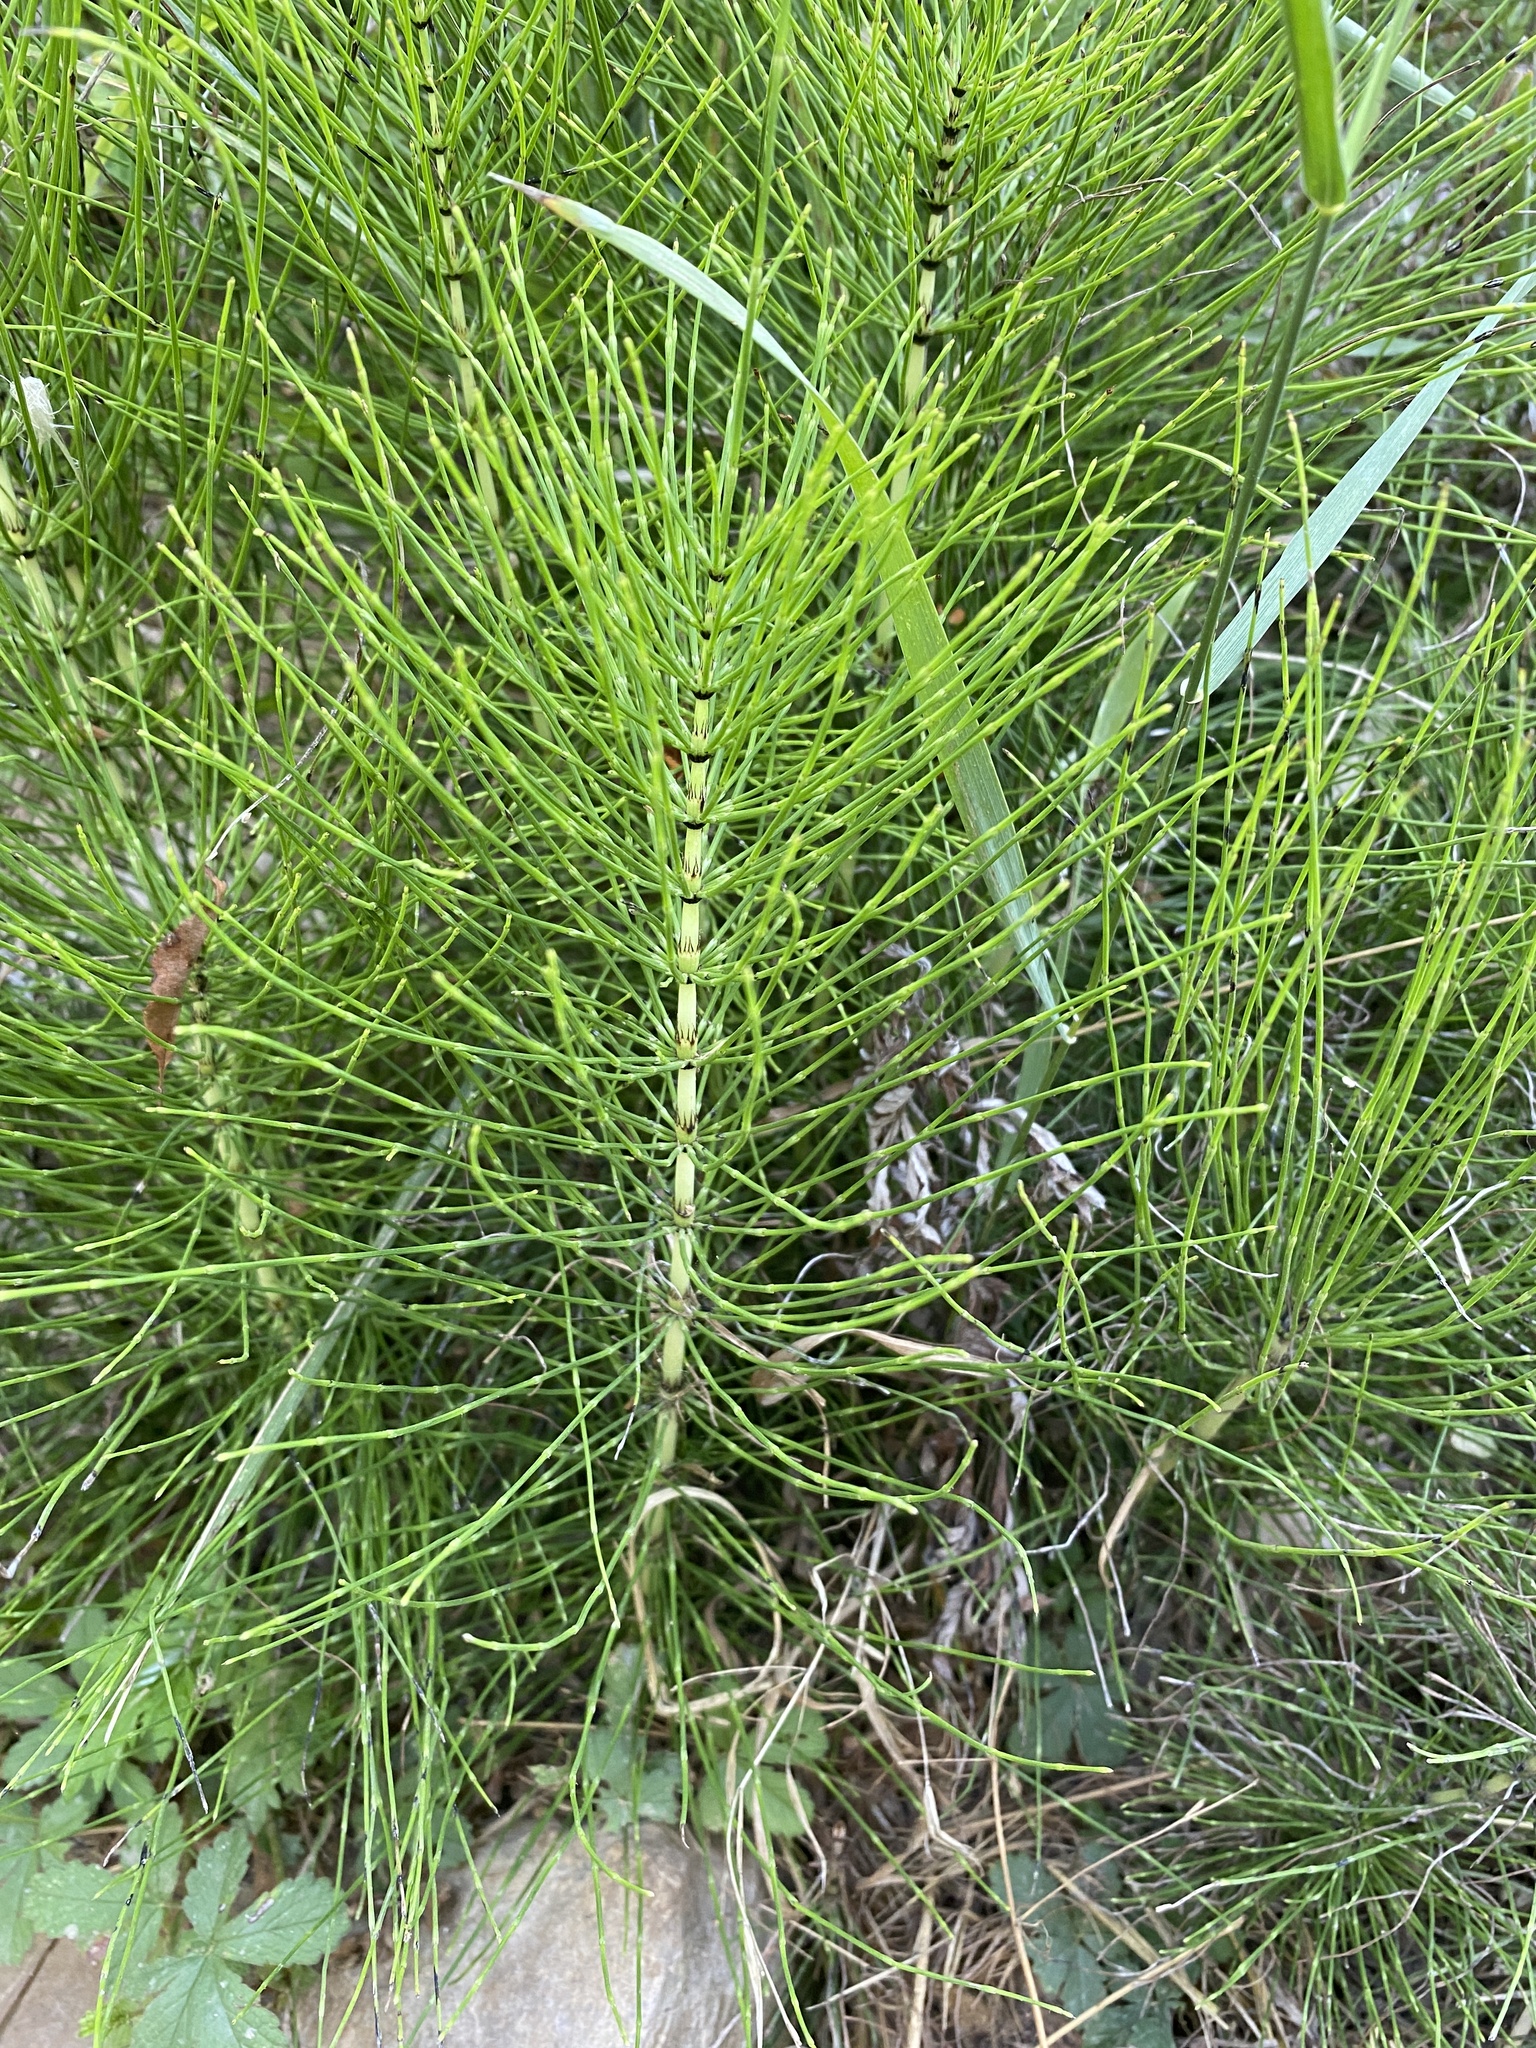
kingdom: Plantae
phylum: Tracheophyta
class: Polypodiopsida
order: Equisetales
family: Equisetaceae
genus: Equisetum
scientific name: Equisetum telmateia
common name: Great horsetail
